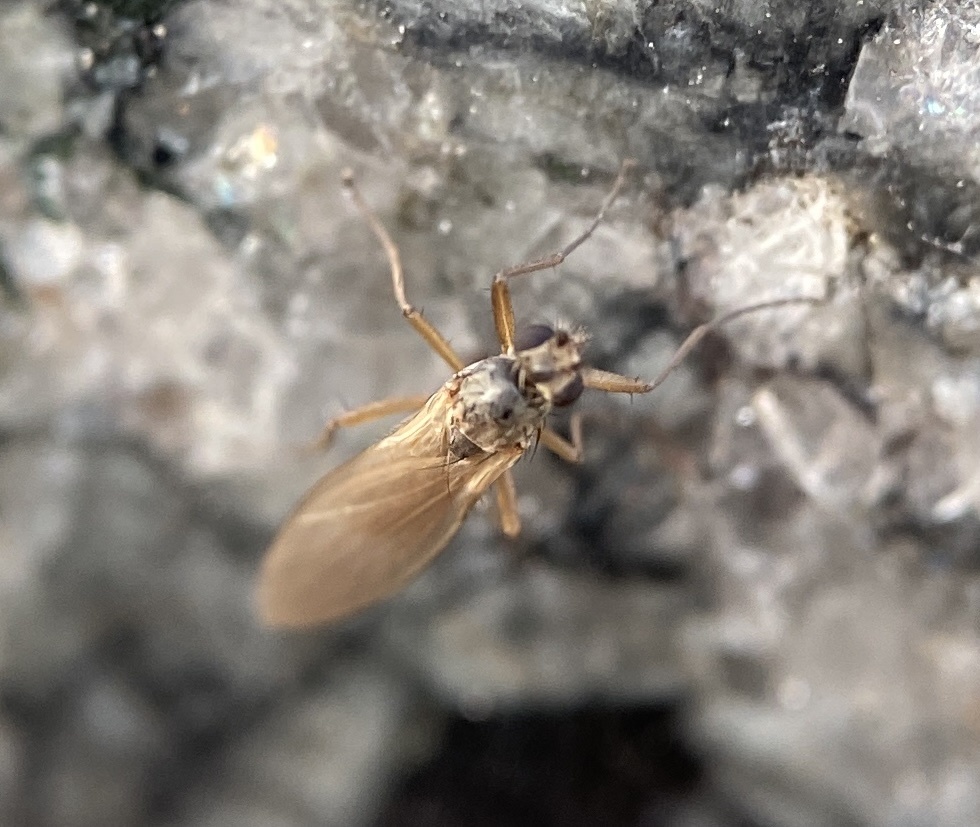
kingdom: Animalia
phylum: Arthropoda
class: Insecta
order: Diptera
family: Lonchopteridae
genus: Lonchoptera
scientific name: Lonchoptera bifurcata
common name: Spear-winged fly
